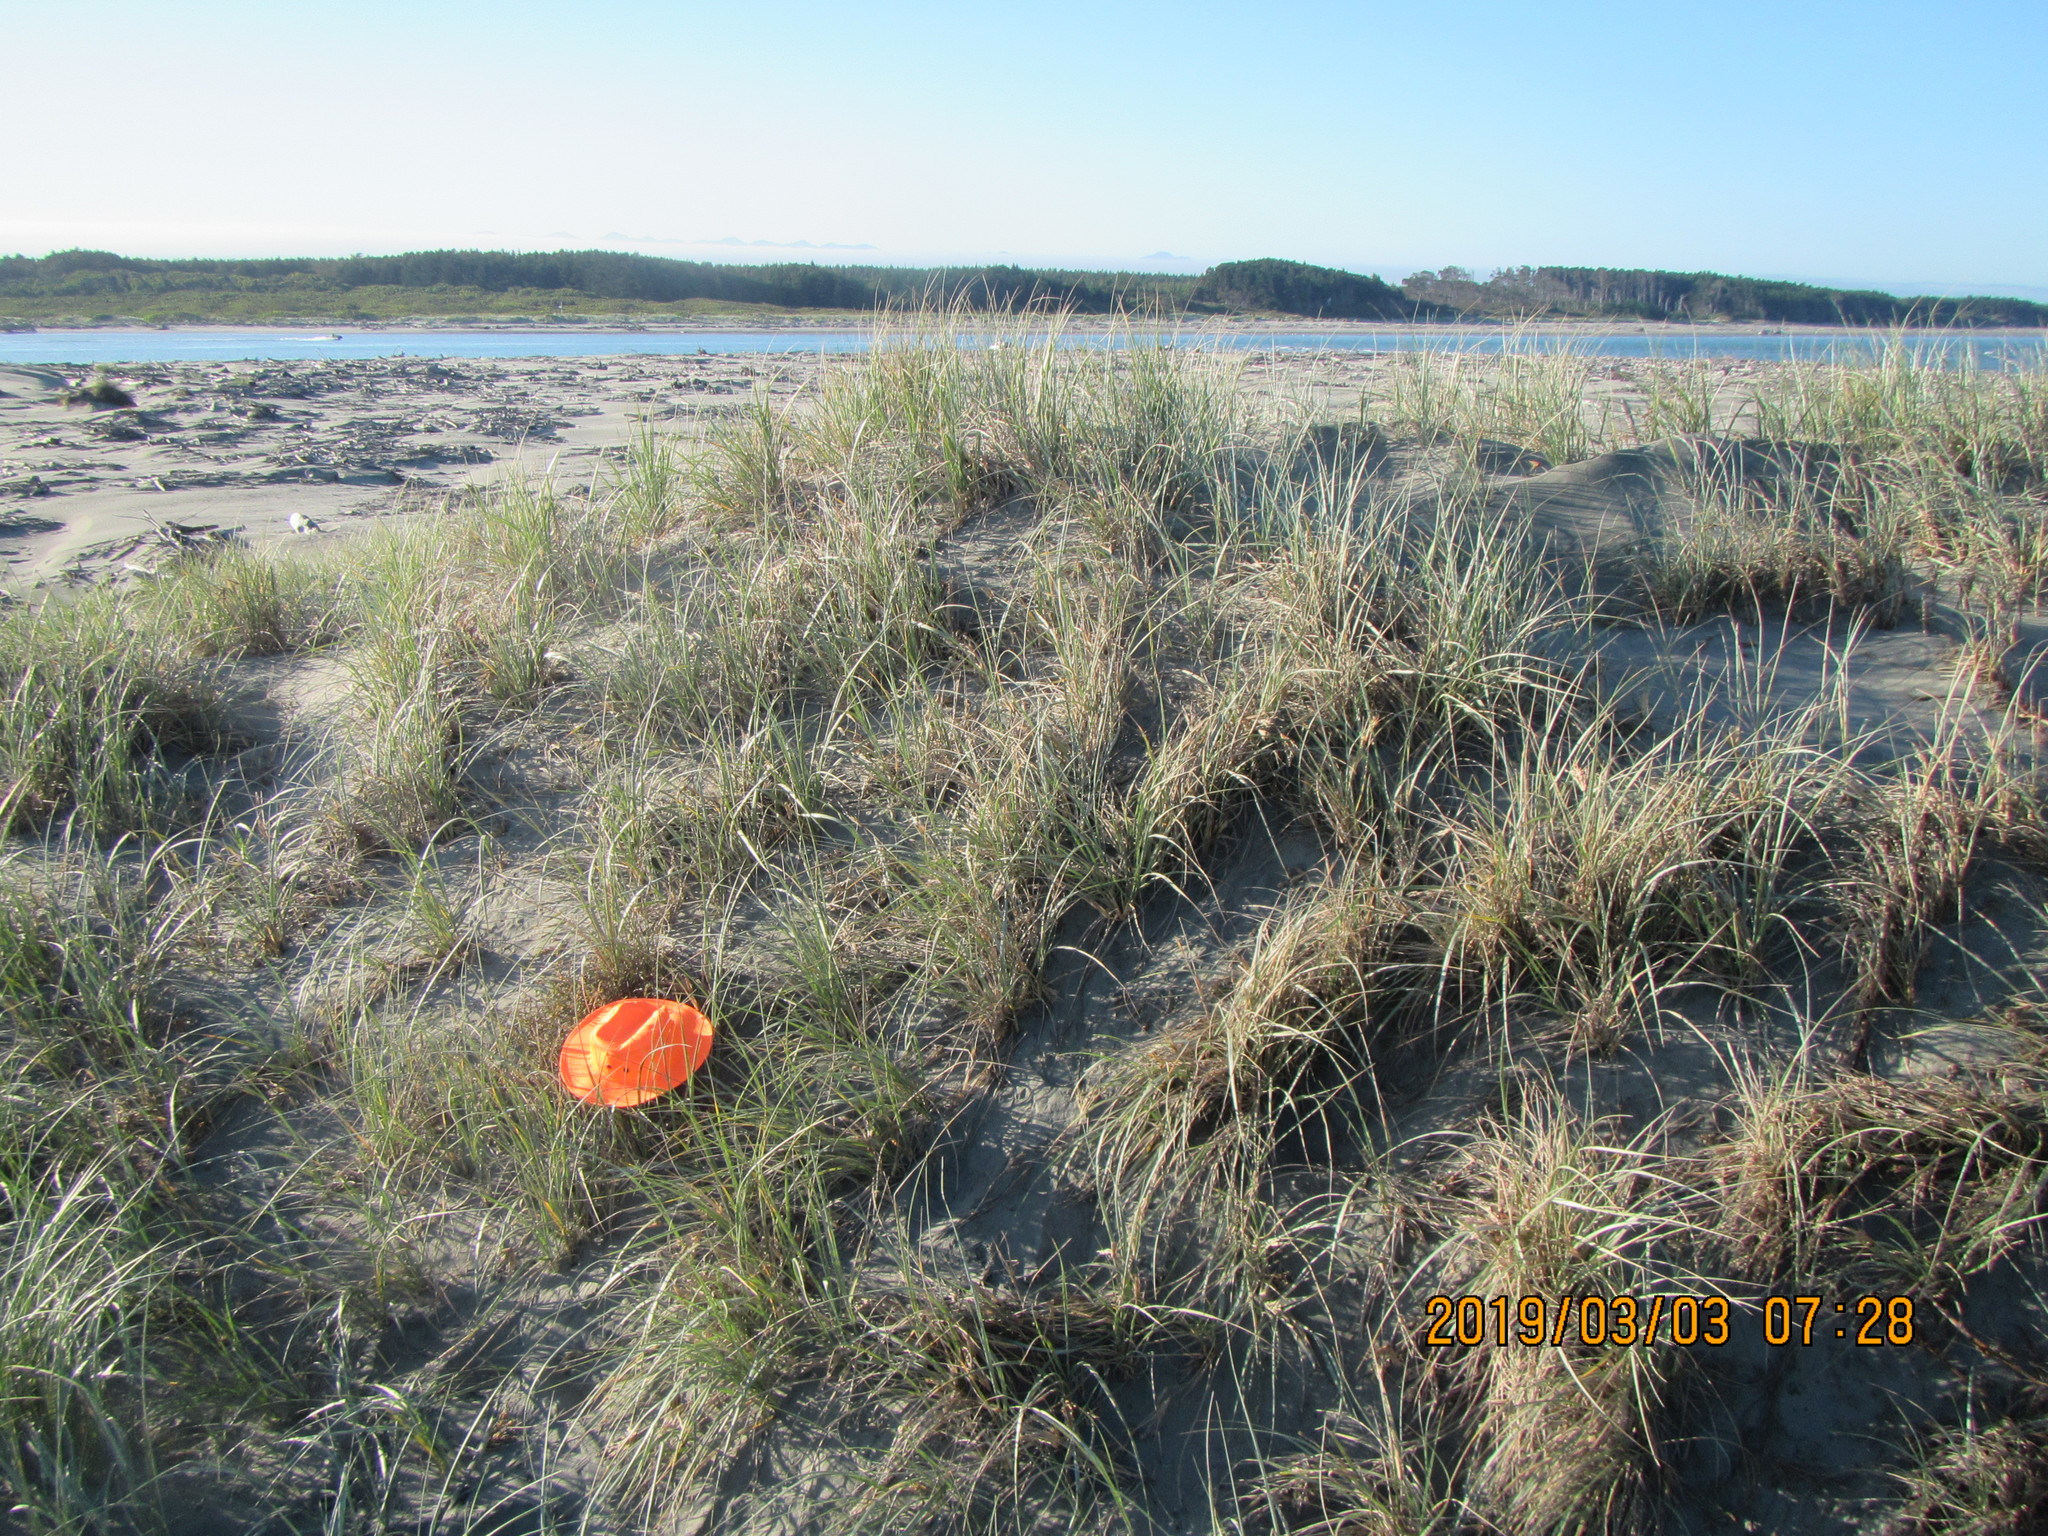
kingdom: Plantae
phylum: Tracheophyta
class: Magnoliopsida
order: Gentianales
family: Rubiaceae
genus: Coprosma
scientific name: Coprosma acerosa
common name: Sand coprosma
